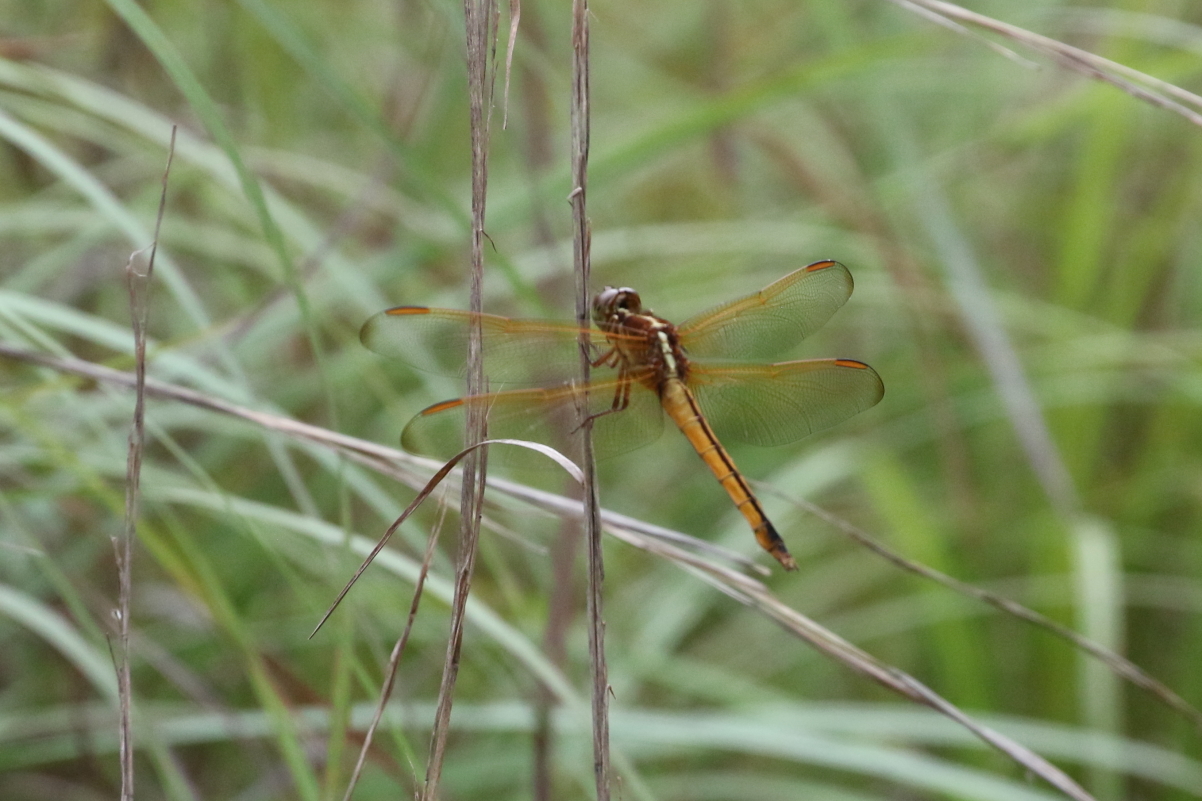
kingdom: Animalia
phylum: Arthropoda
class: Insecta
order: Odonata
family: Libellulidae
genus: Libellula
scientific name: Libellula needhami
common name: Needham's skimmer
